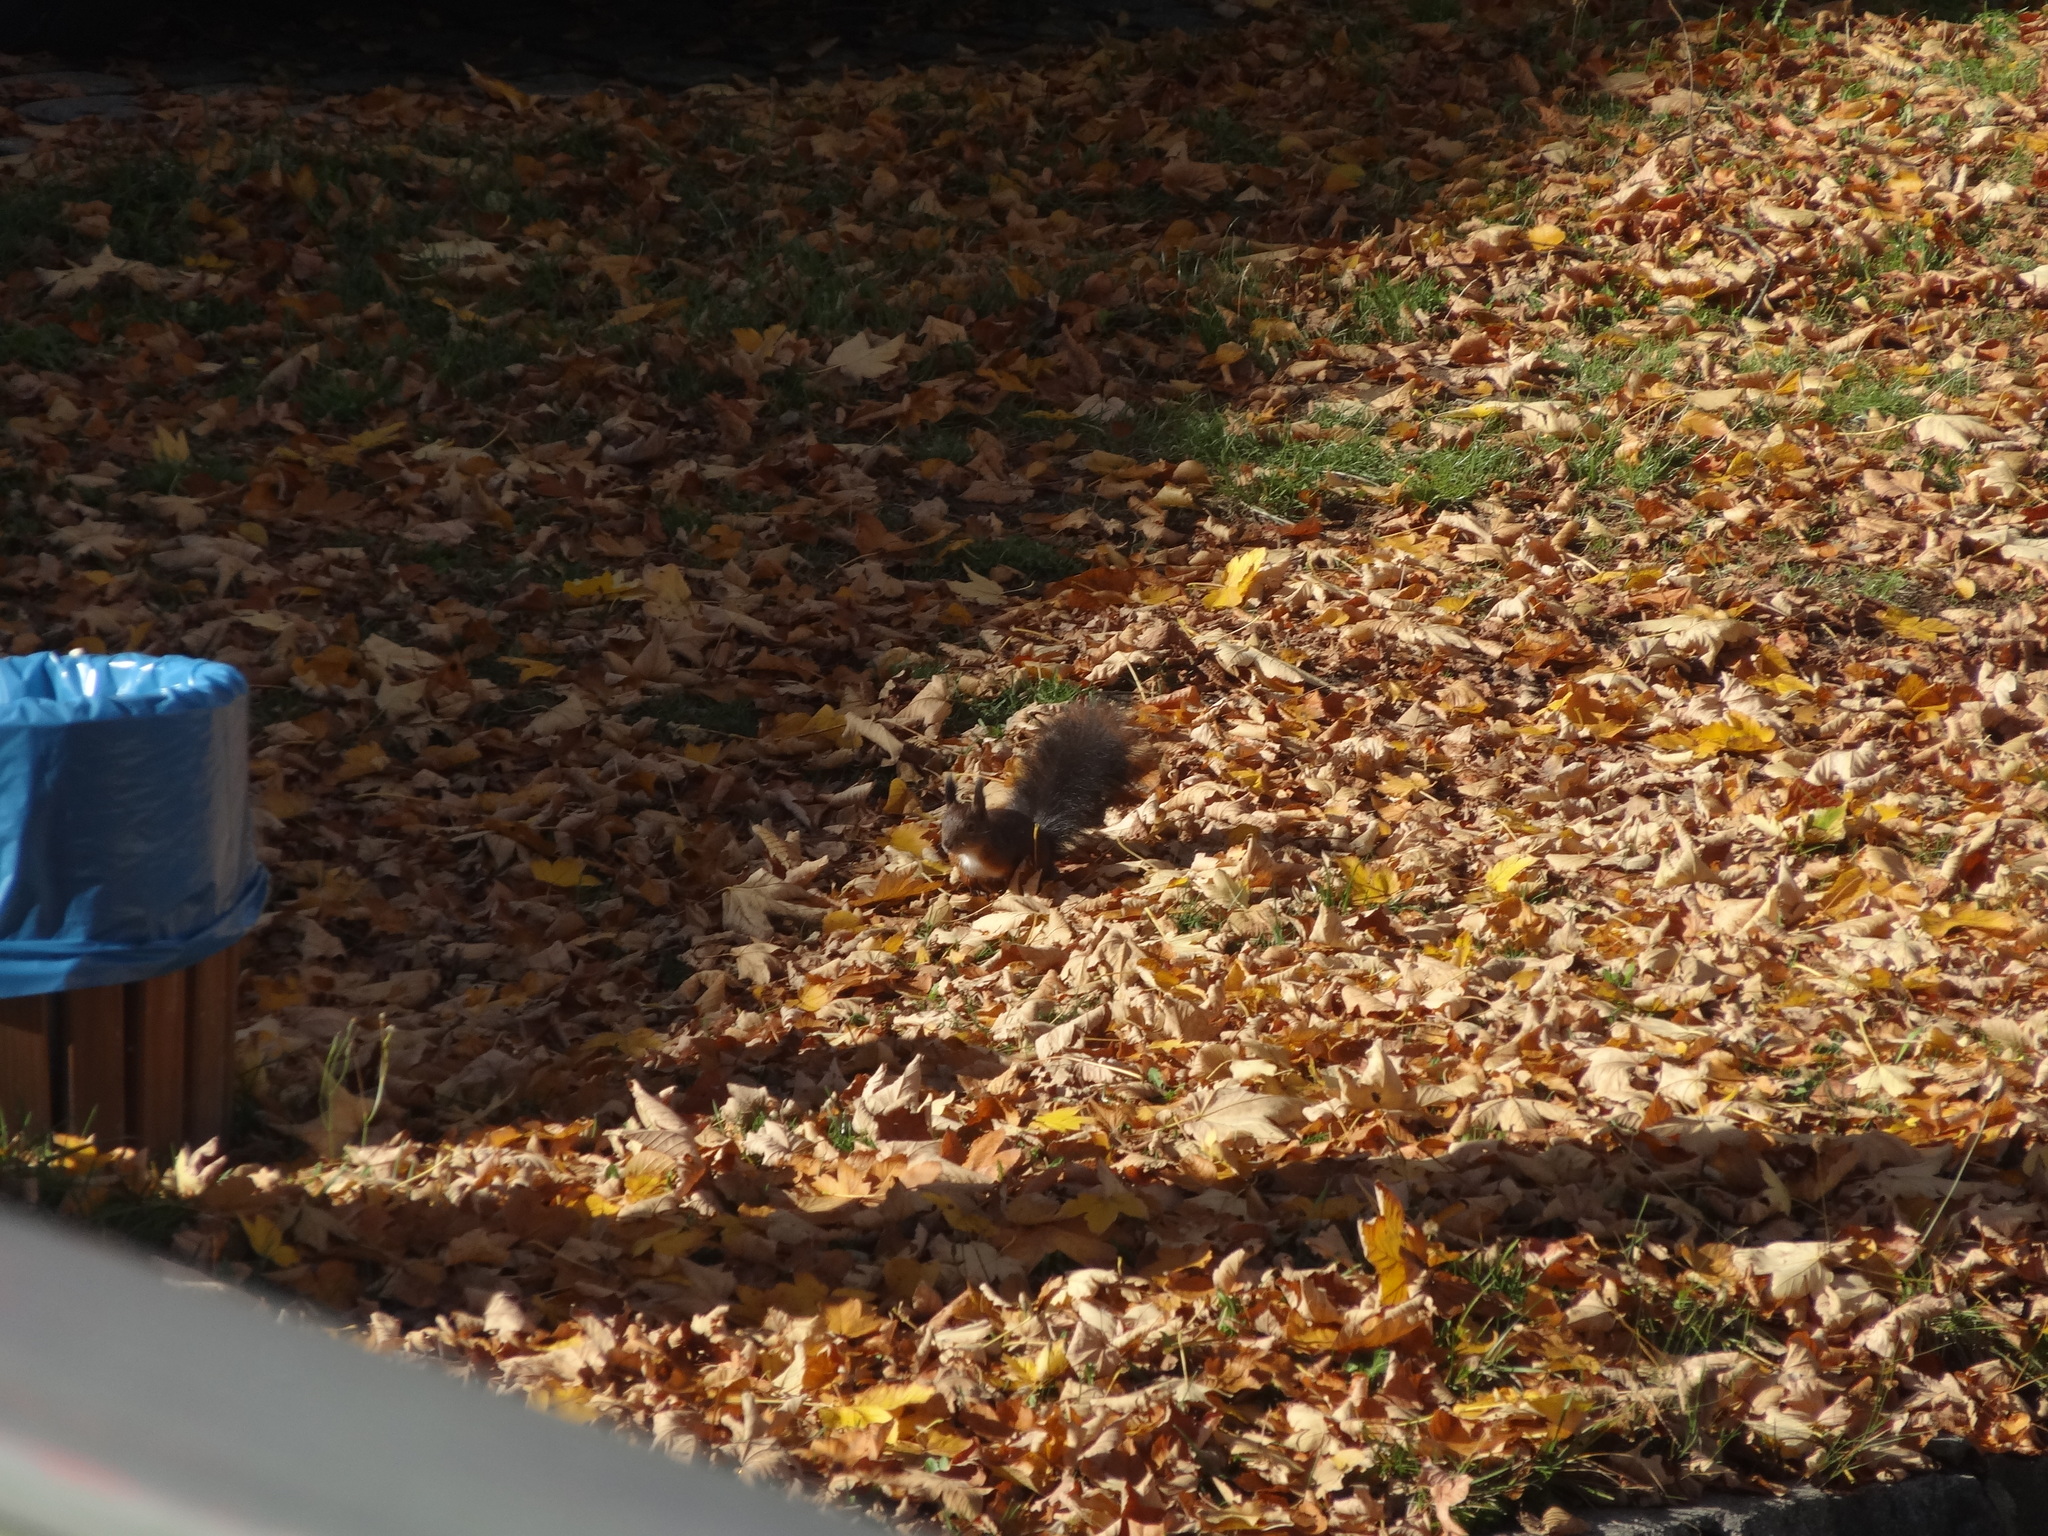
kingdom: Animalia
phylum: Chordata
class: Mammalia
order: Rodentia
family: Sciuridae
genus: Sciurus
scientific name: Sciurus vulgaris
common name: Eurasian red squirrel
